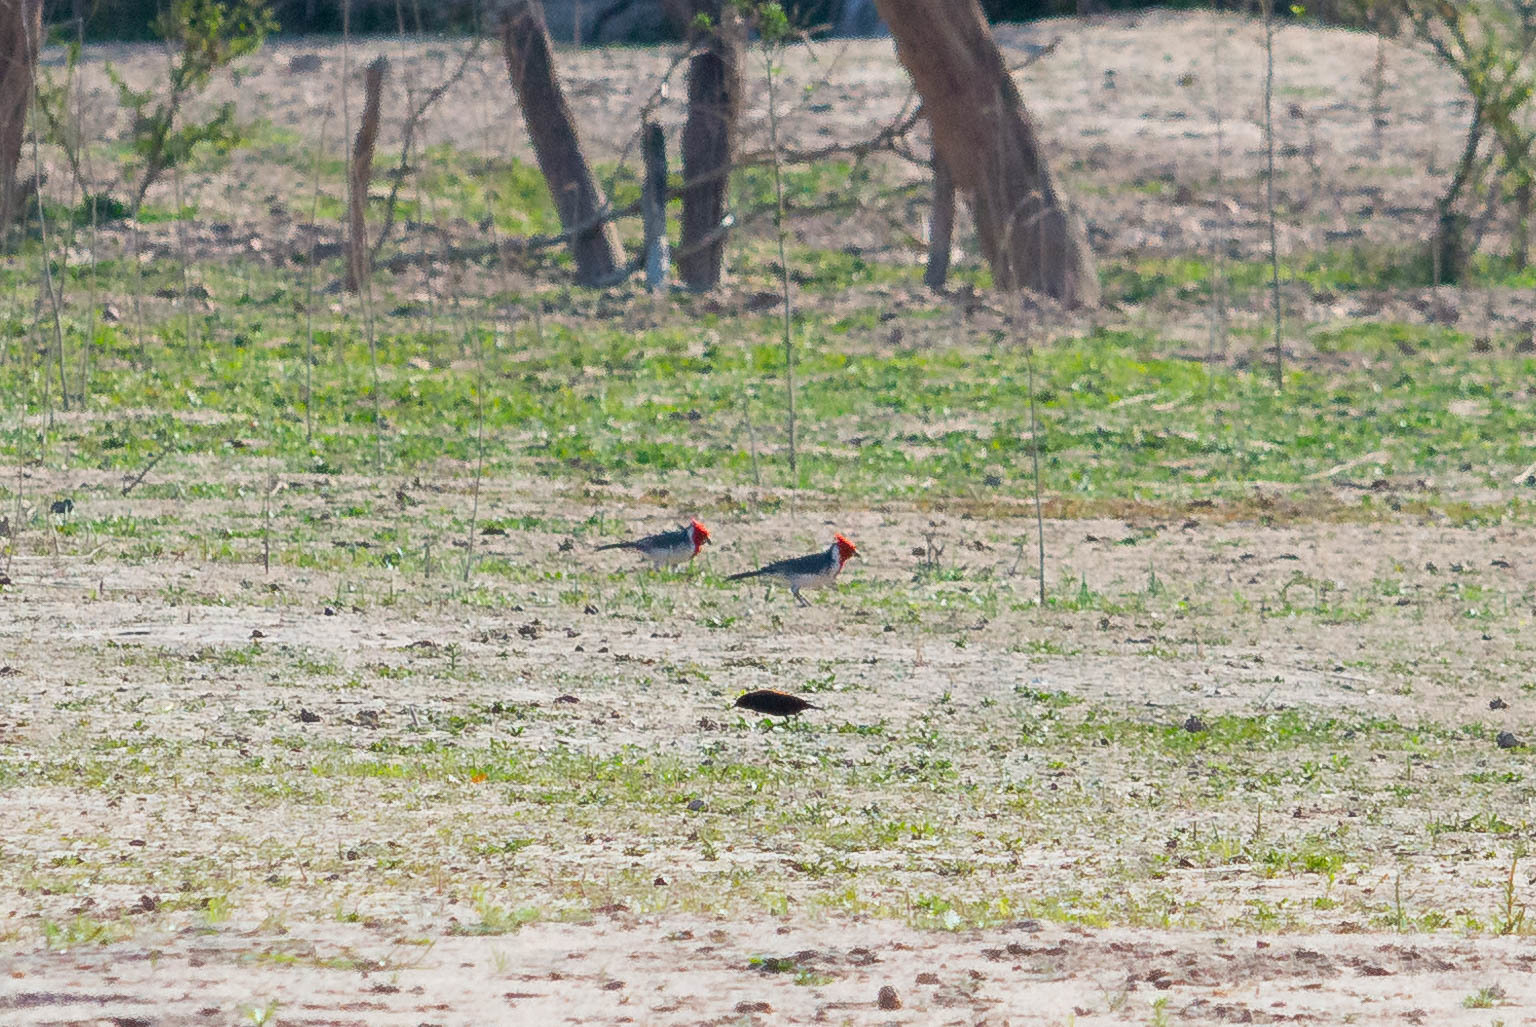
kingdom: Animalia
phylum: Chordata
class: Aves
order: Passeriformes
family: Thraupidae
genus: Paroaria
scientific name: Paroaria coronata
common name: Red-crested cardinal
